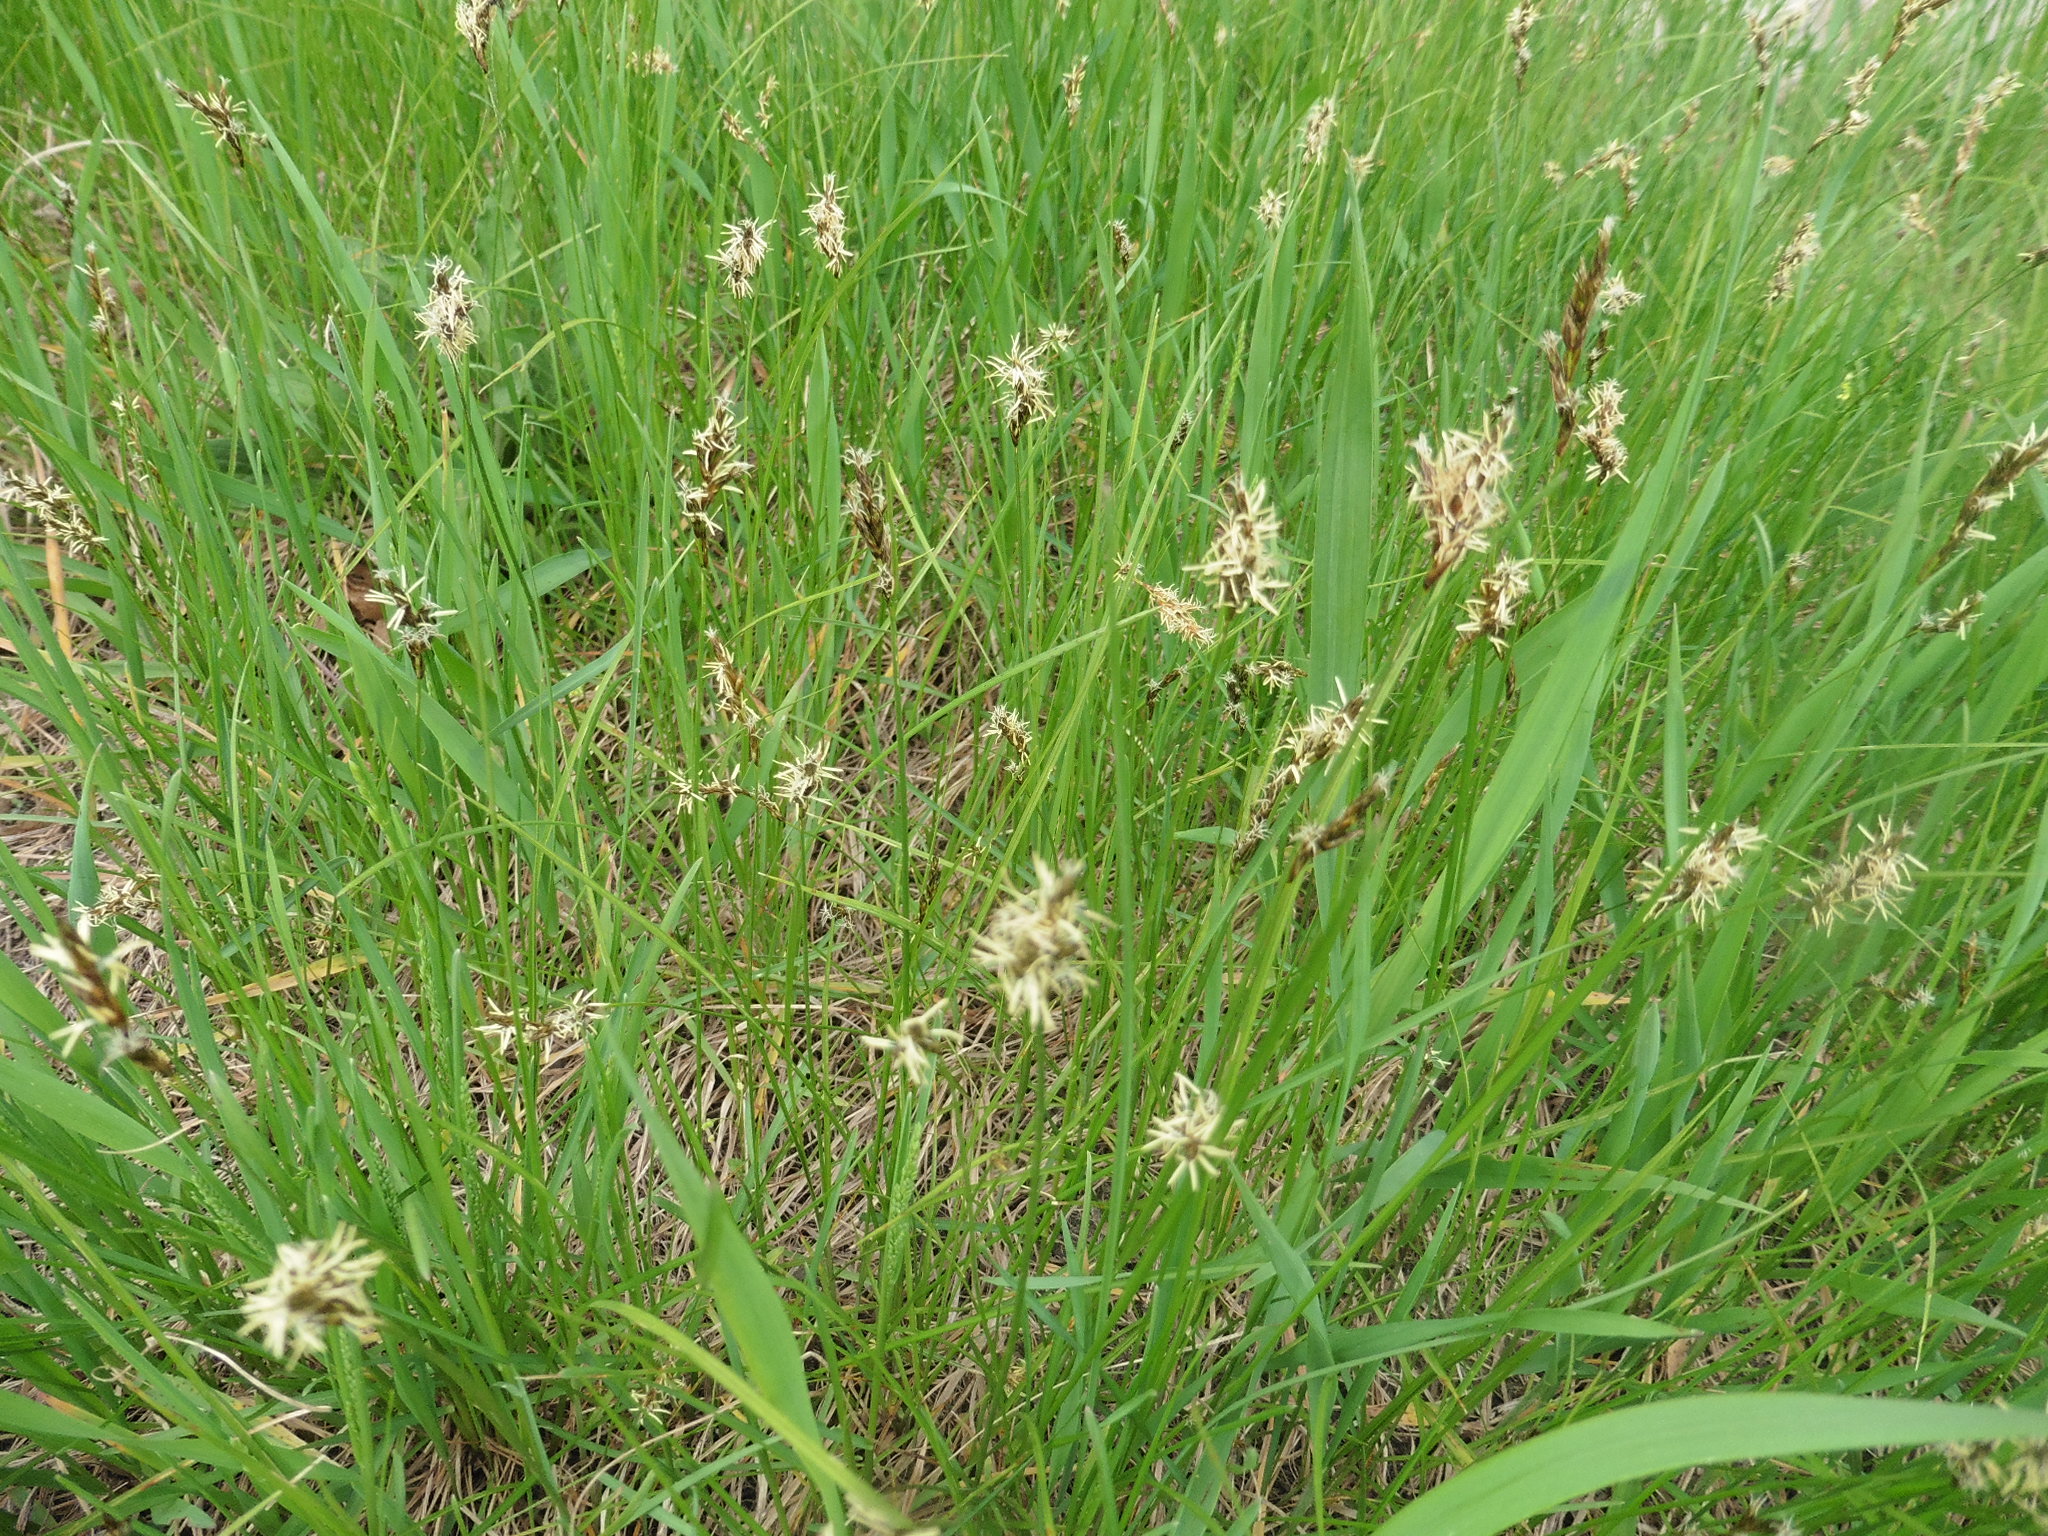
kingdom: Plantae
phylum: Tracheophyta
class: Liliopsida
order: Poales
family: Cyperaceae
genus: Carex
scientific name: Carex praecox
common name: Early sedge
